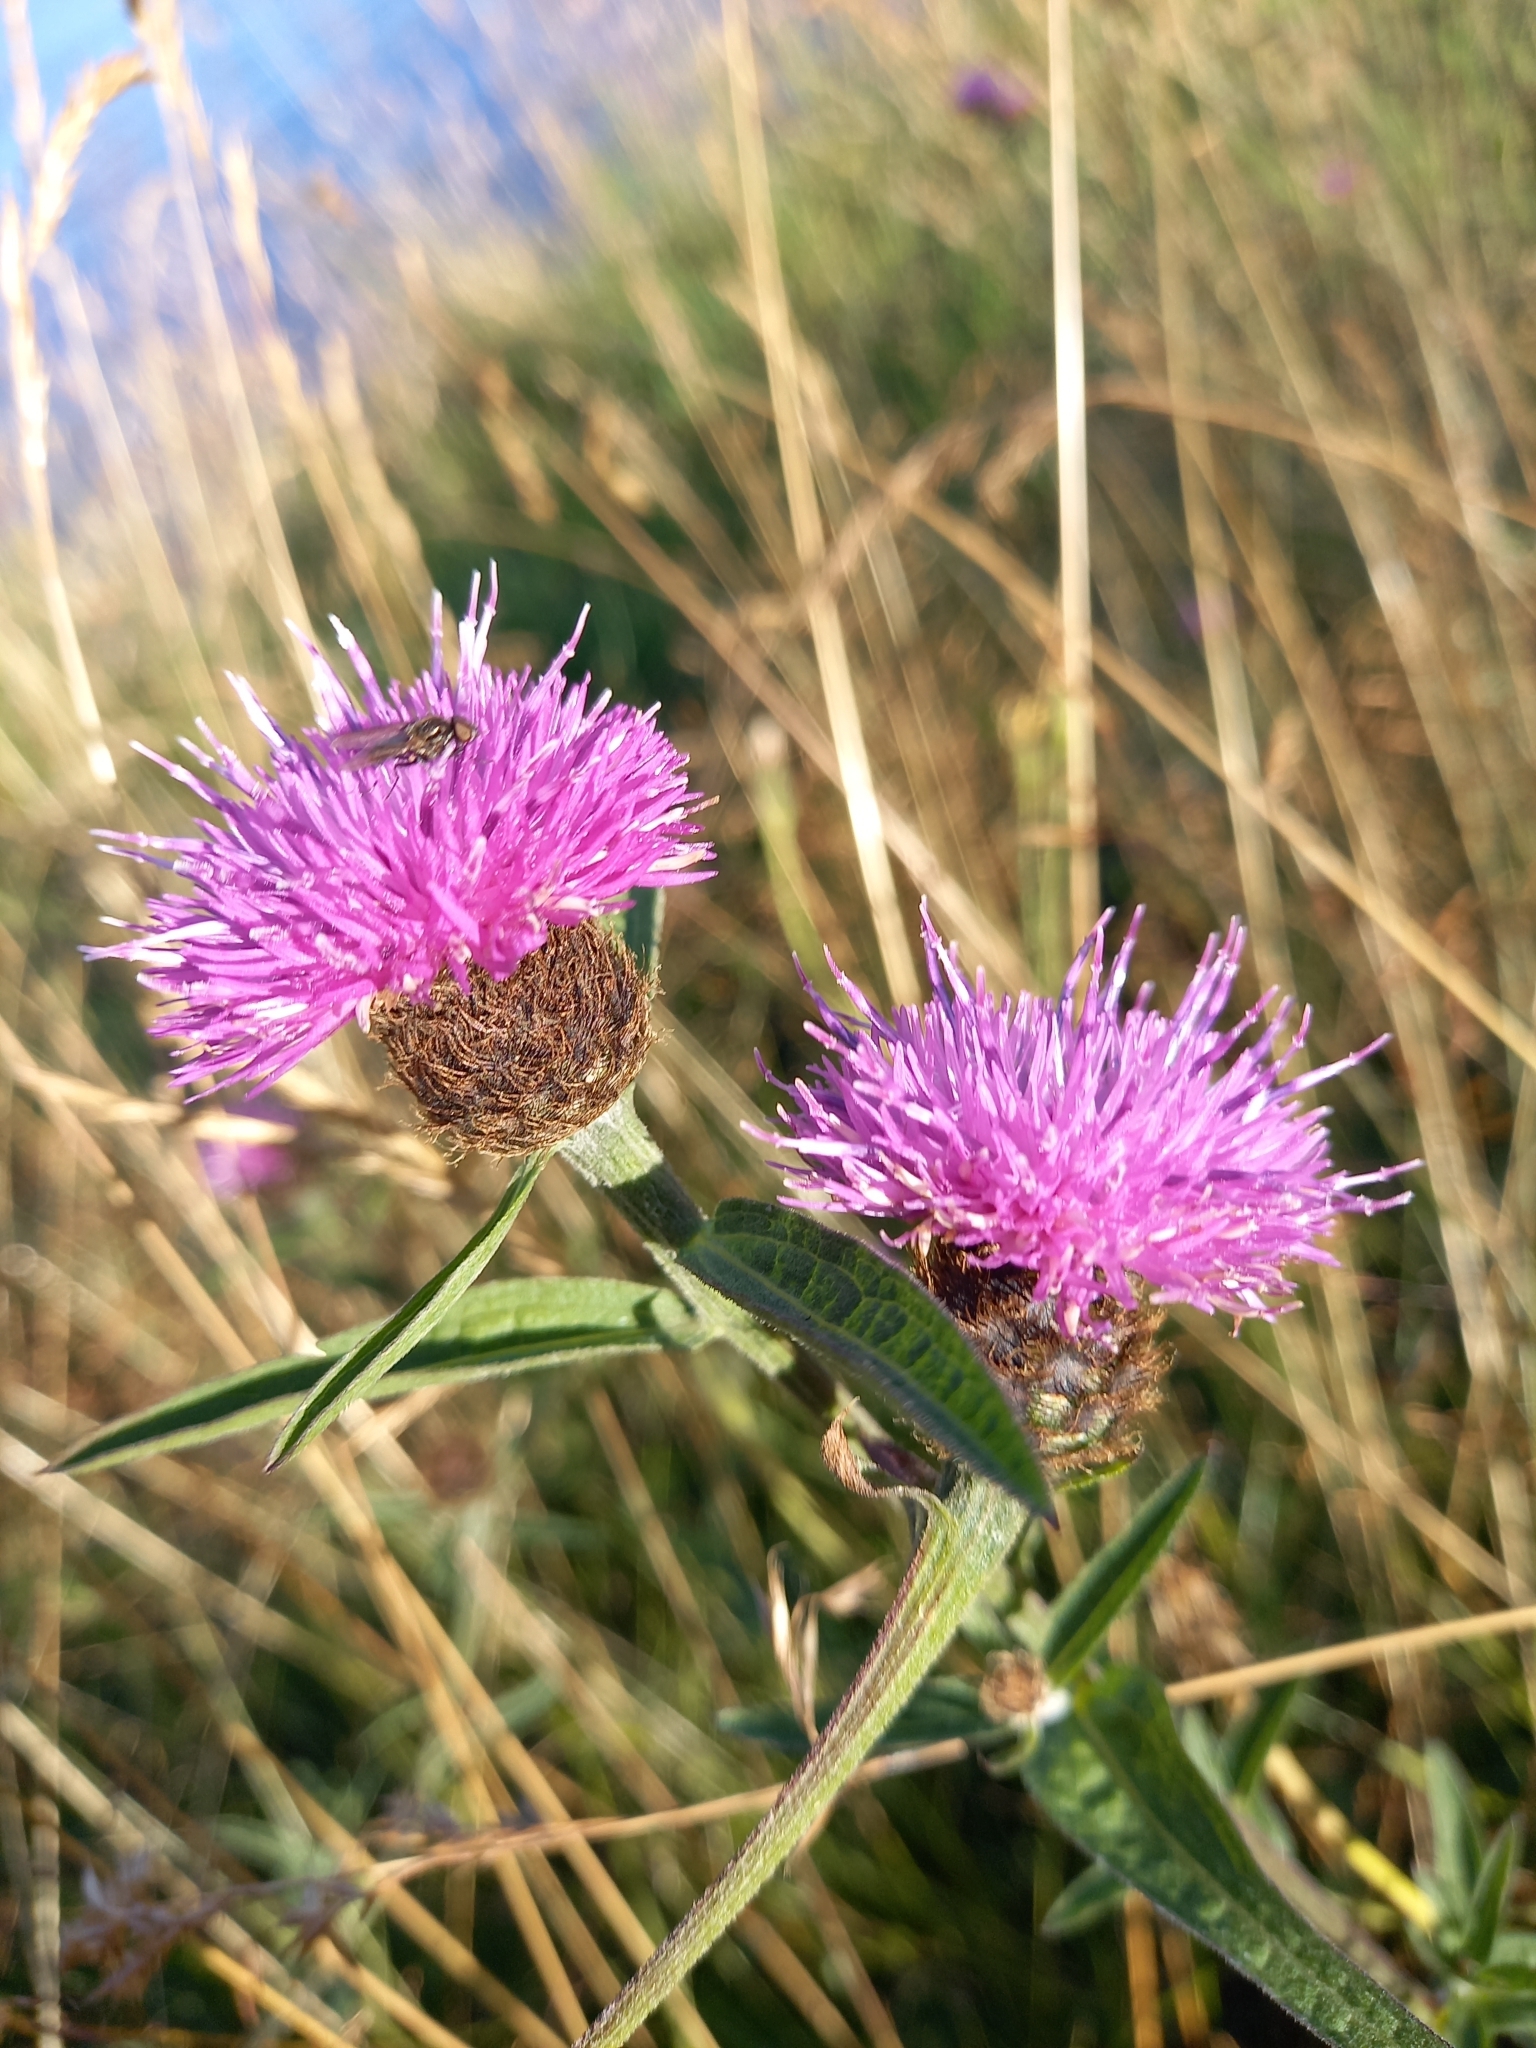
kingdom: Plantae
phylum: Tracheophyta
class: Magnoliopsida
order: Asterales
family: Asteraceae
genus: Centaurea
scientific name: Centaurea nigra
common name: Lesser knapweed
